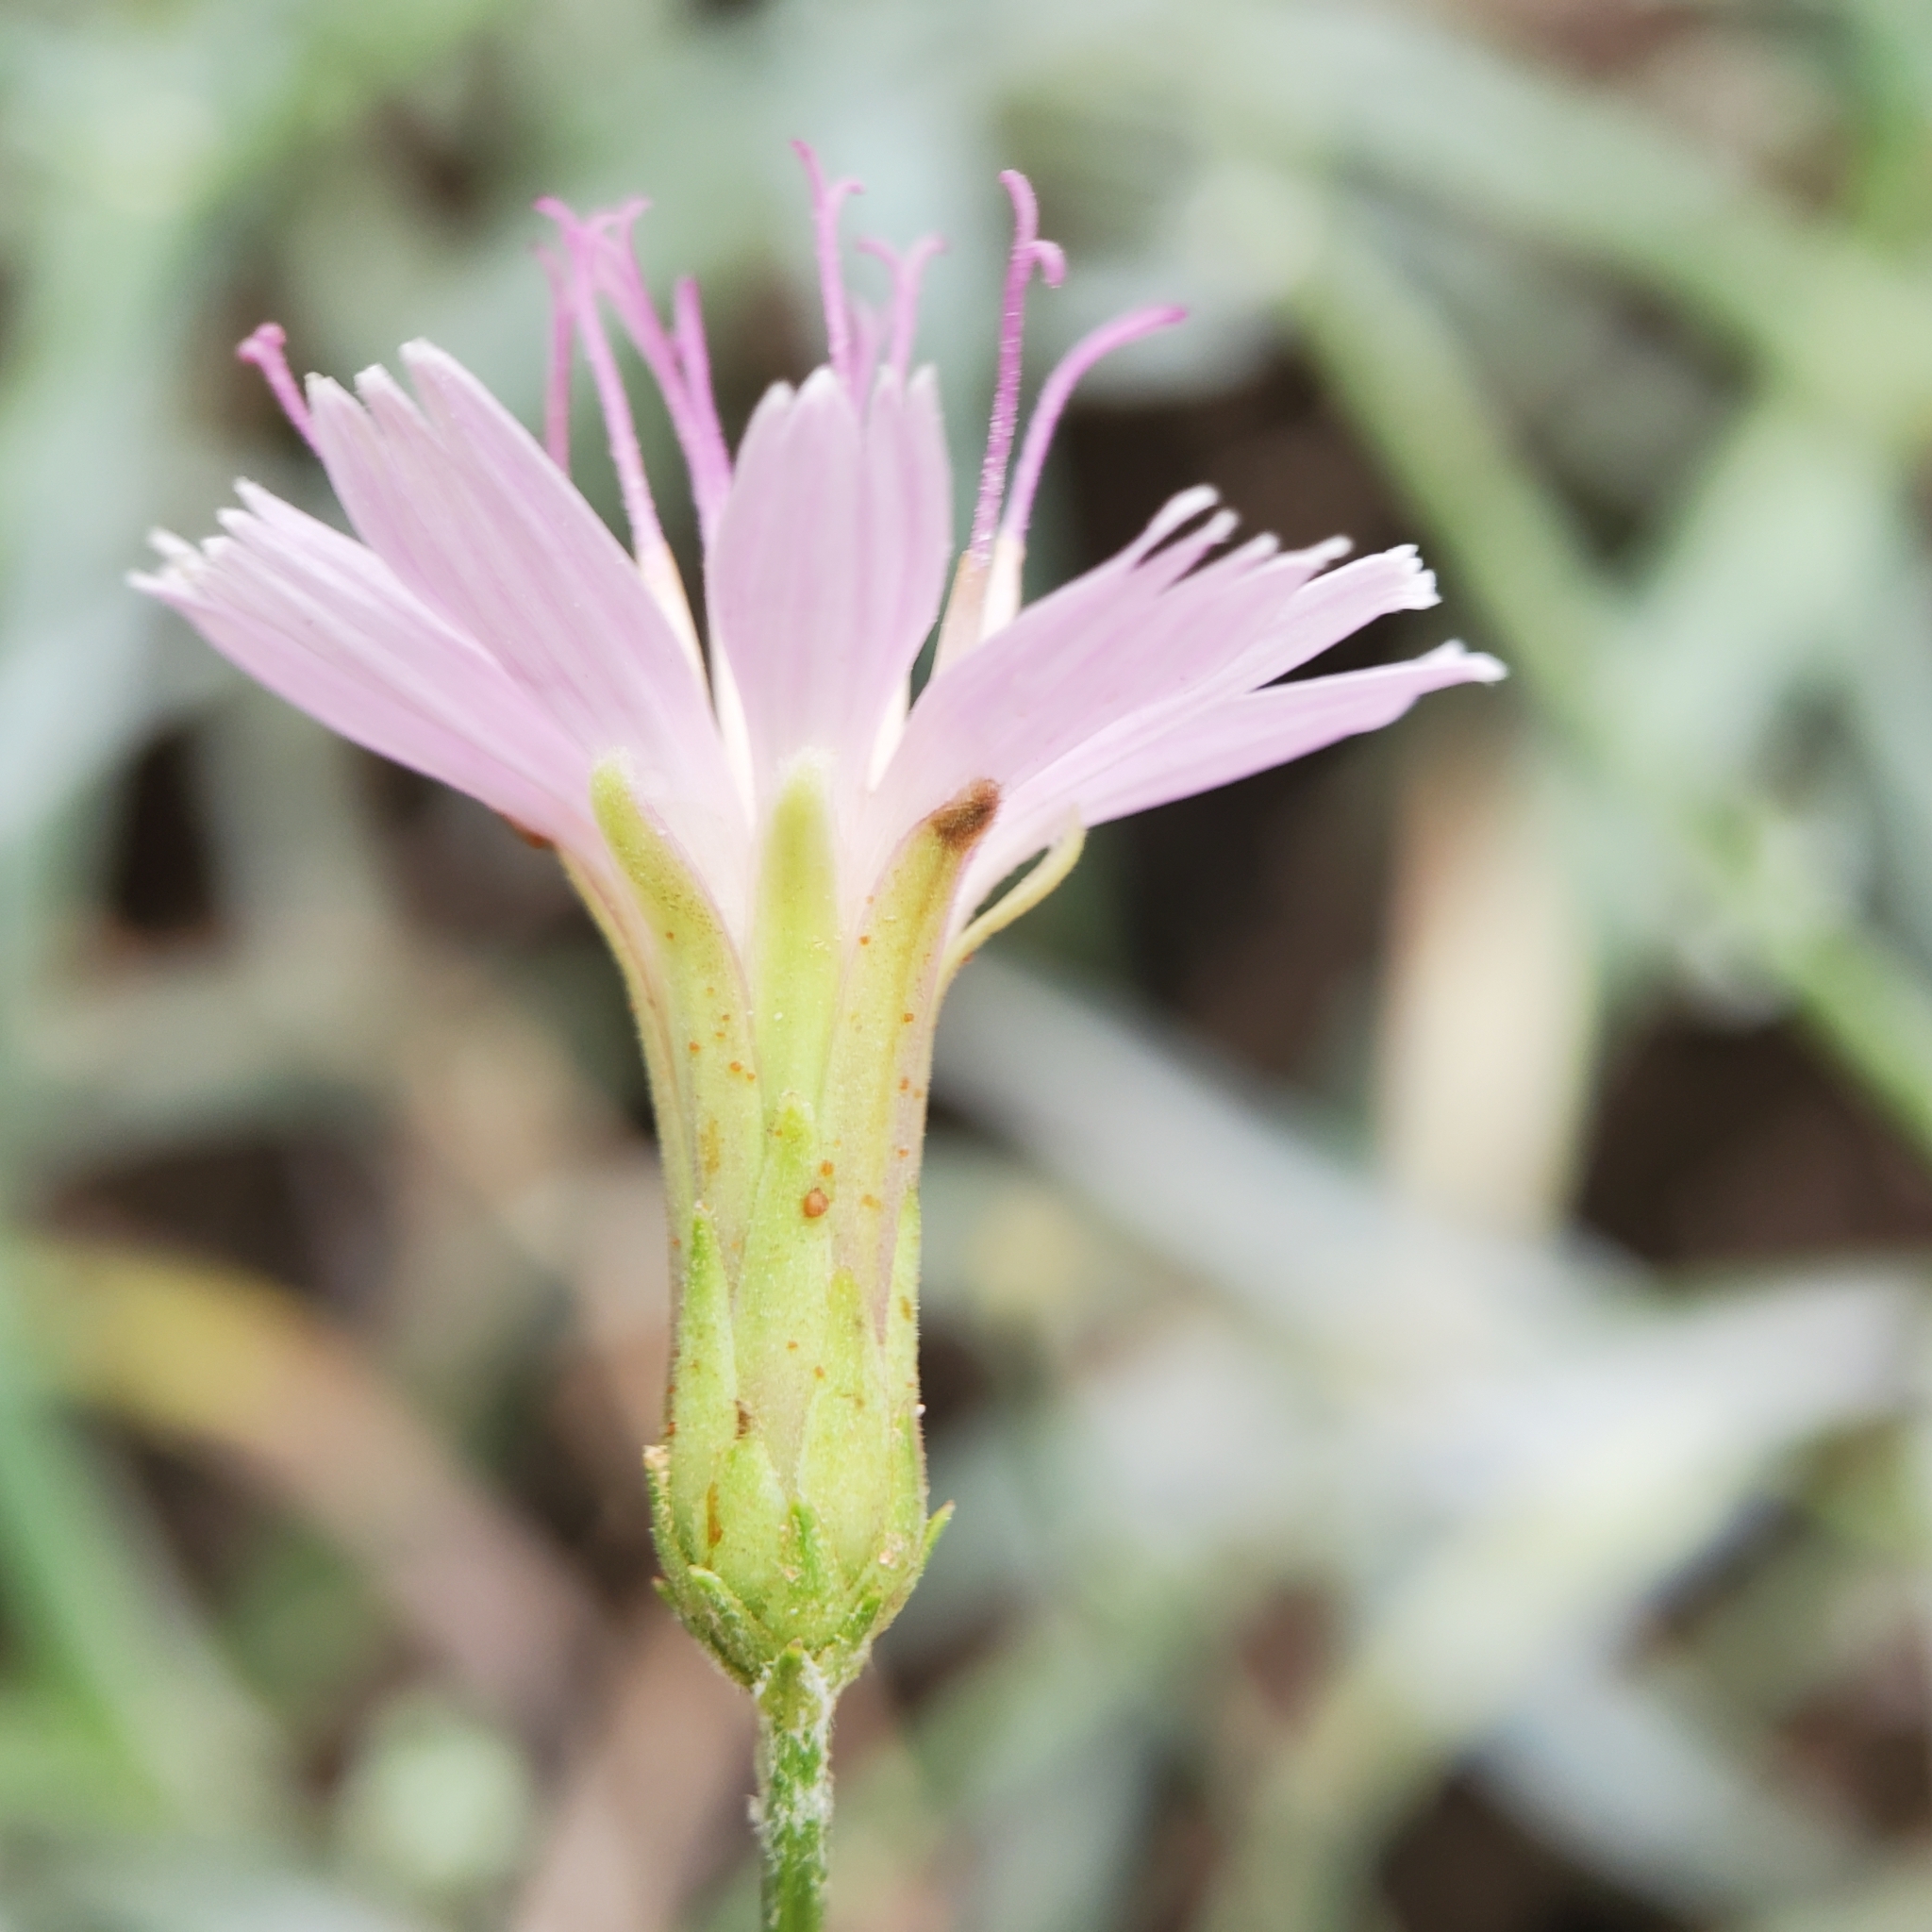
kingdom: Plantae
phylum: Tracheophyta
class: Magnoliopsida
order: Asterales
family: Asteraceae
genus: Stephanomeria
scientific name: Stephanomeria cichoriacea
